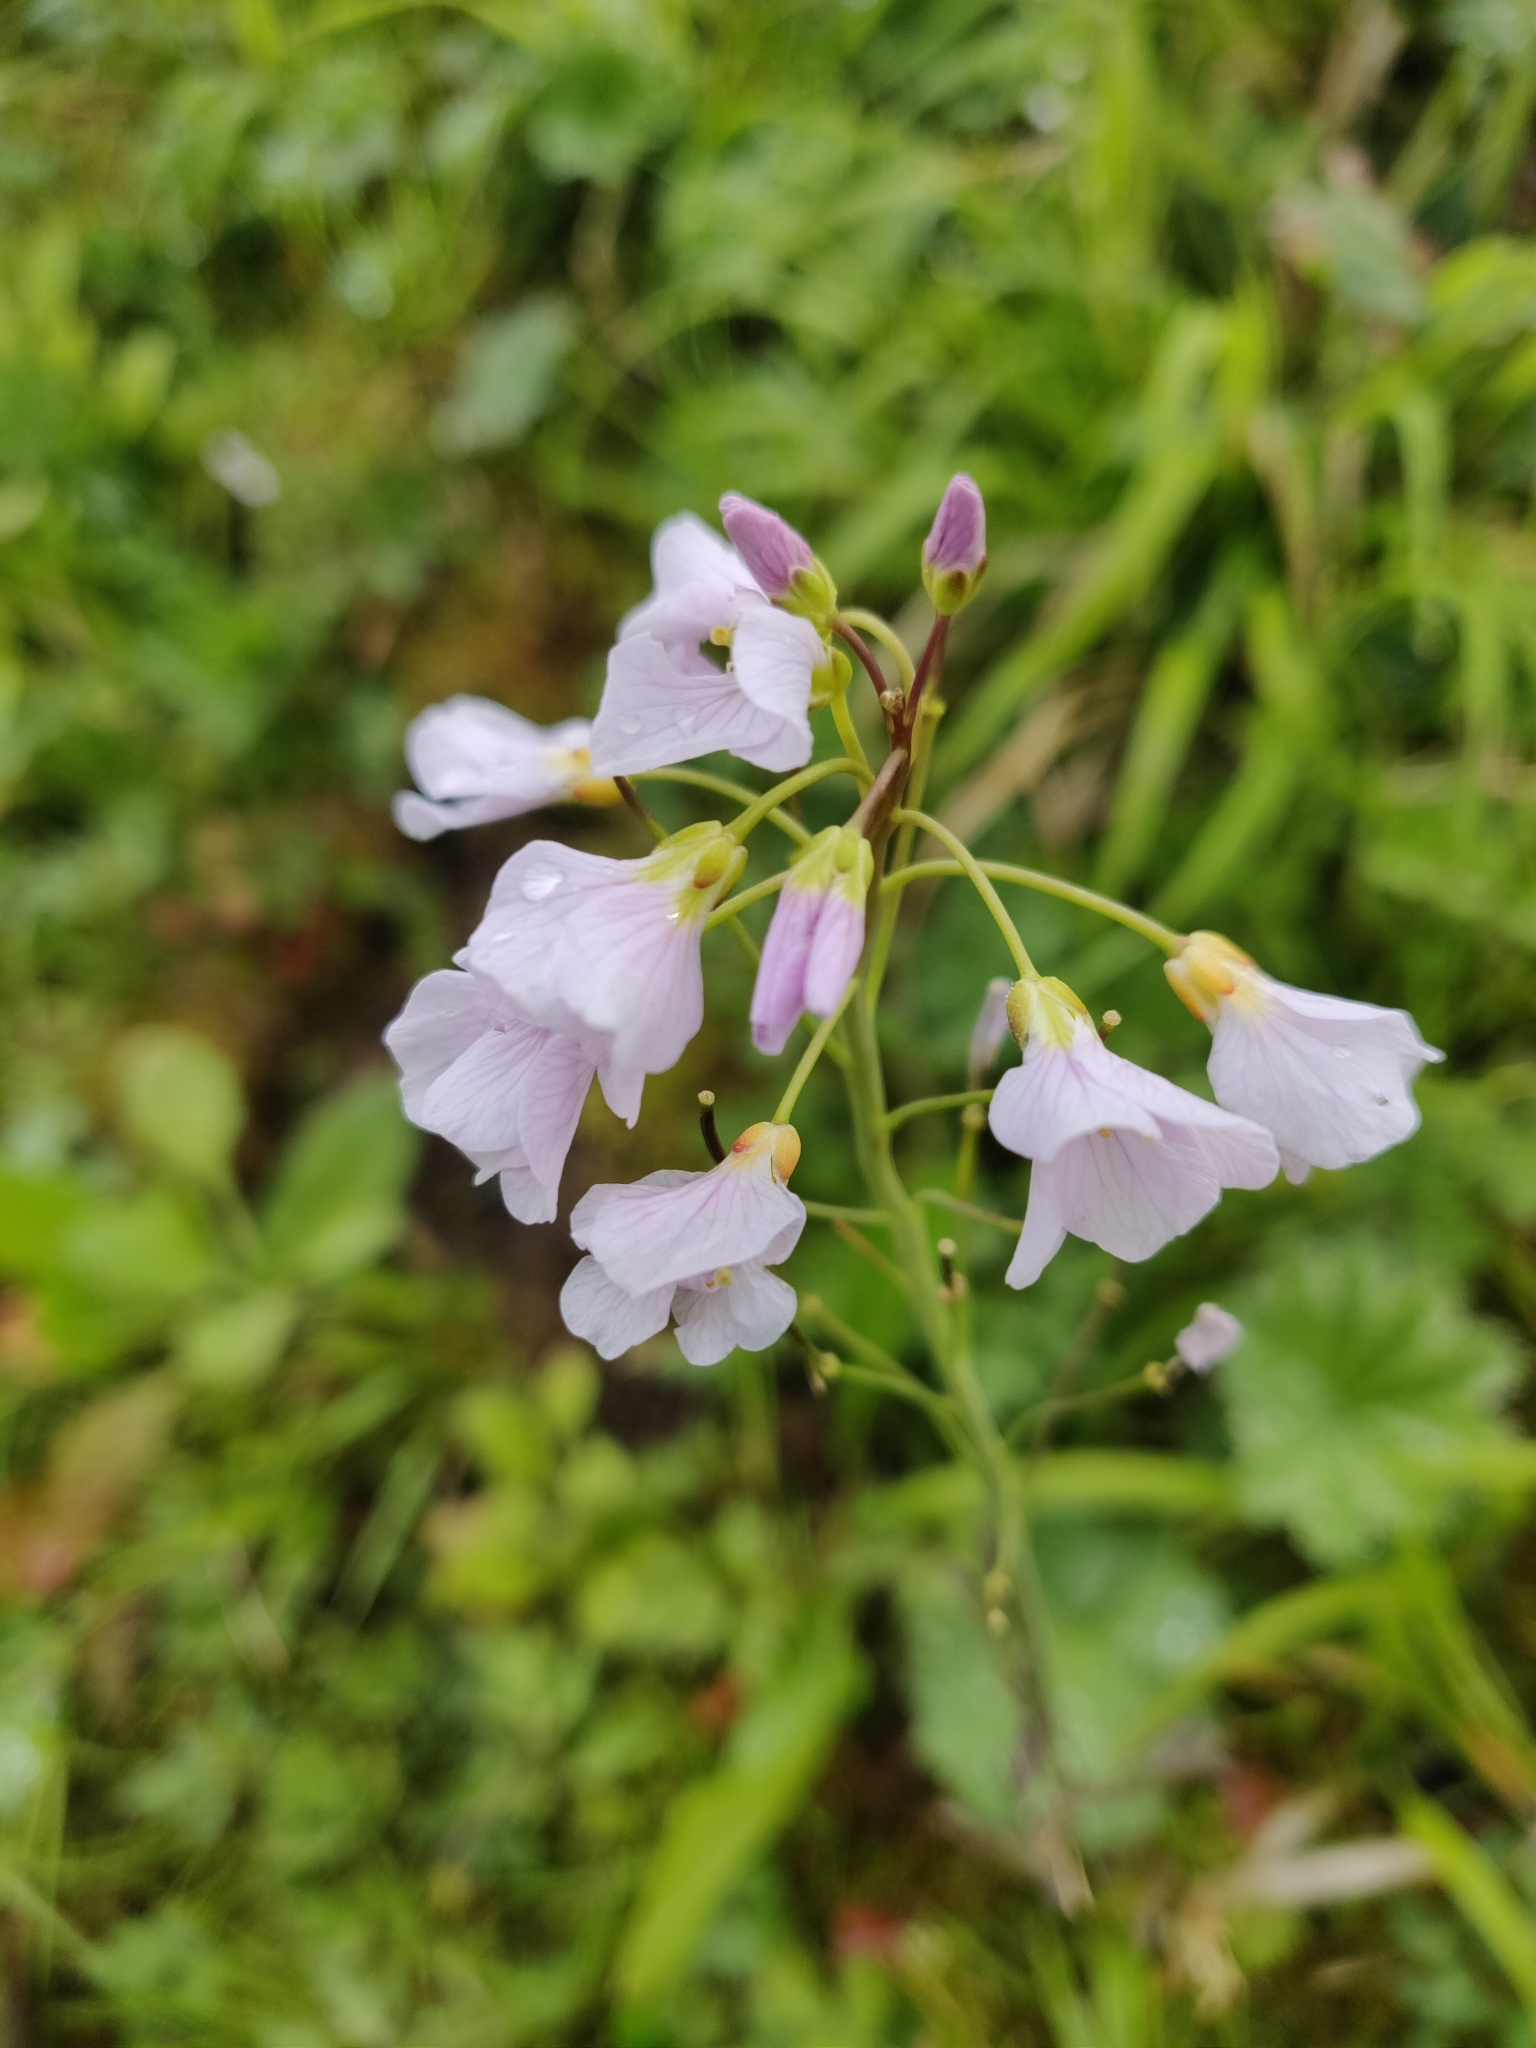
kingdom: Plantae
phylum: Tracheophyta
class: Magnoliopsida
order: Brassicales
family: Brassicaceae
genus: Cardamine
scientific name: Cardamine pratensis
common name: Cuckoo flower
